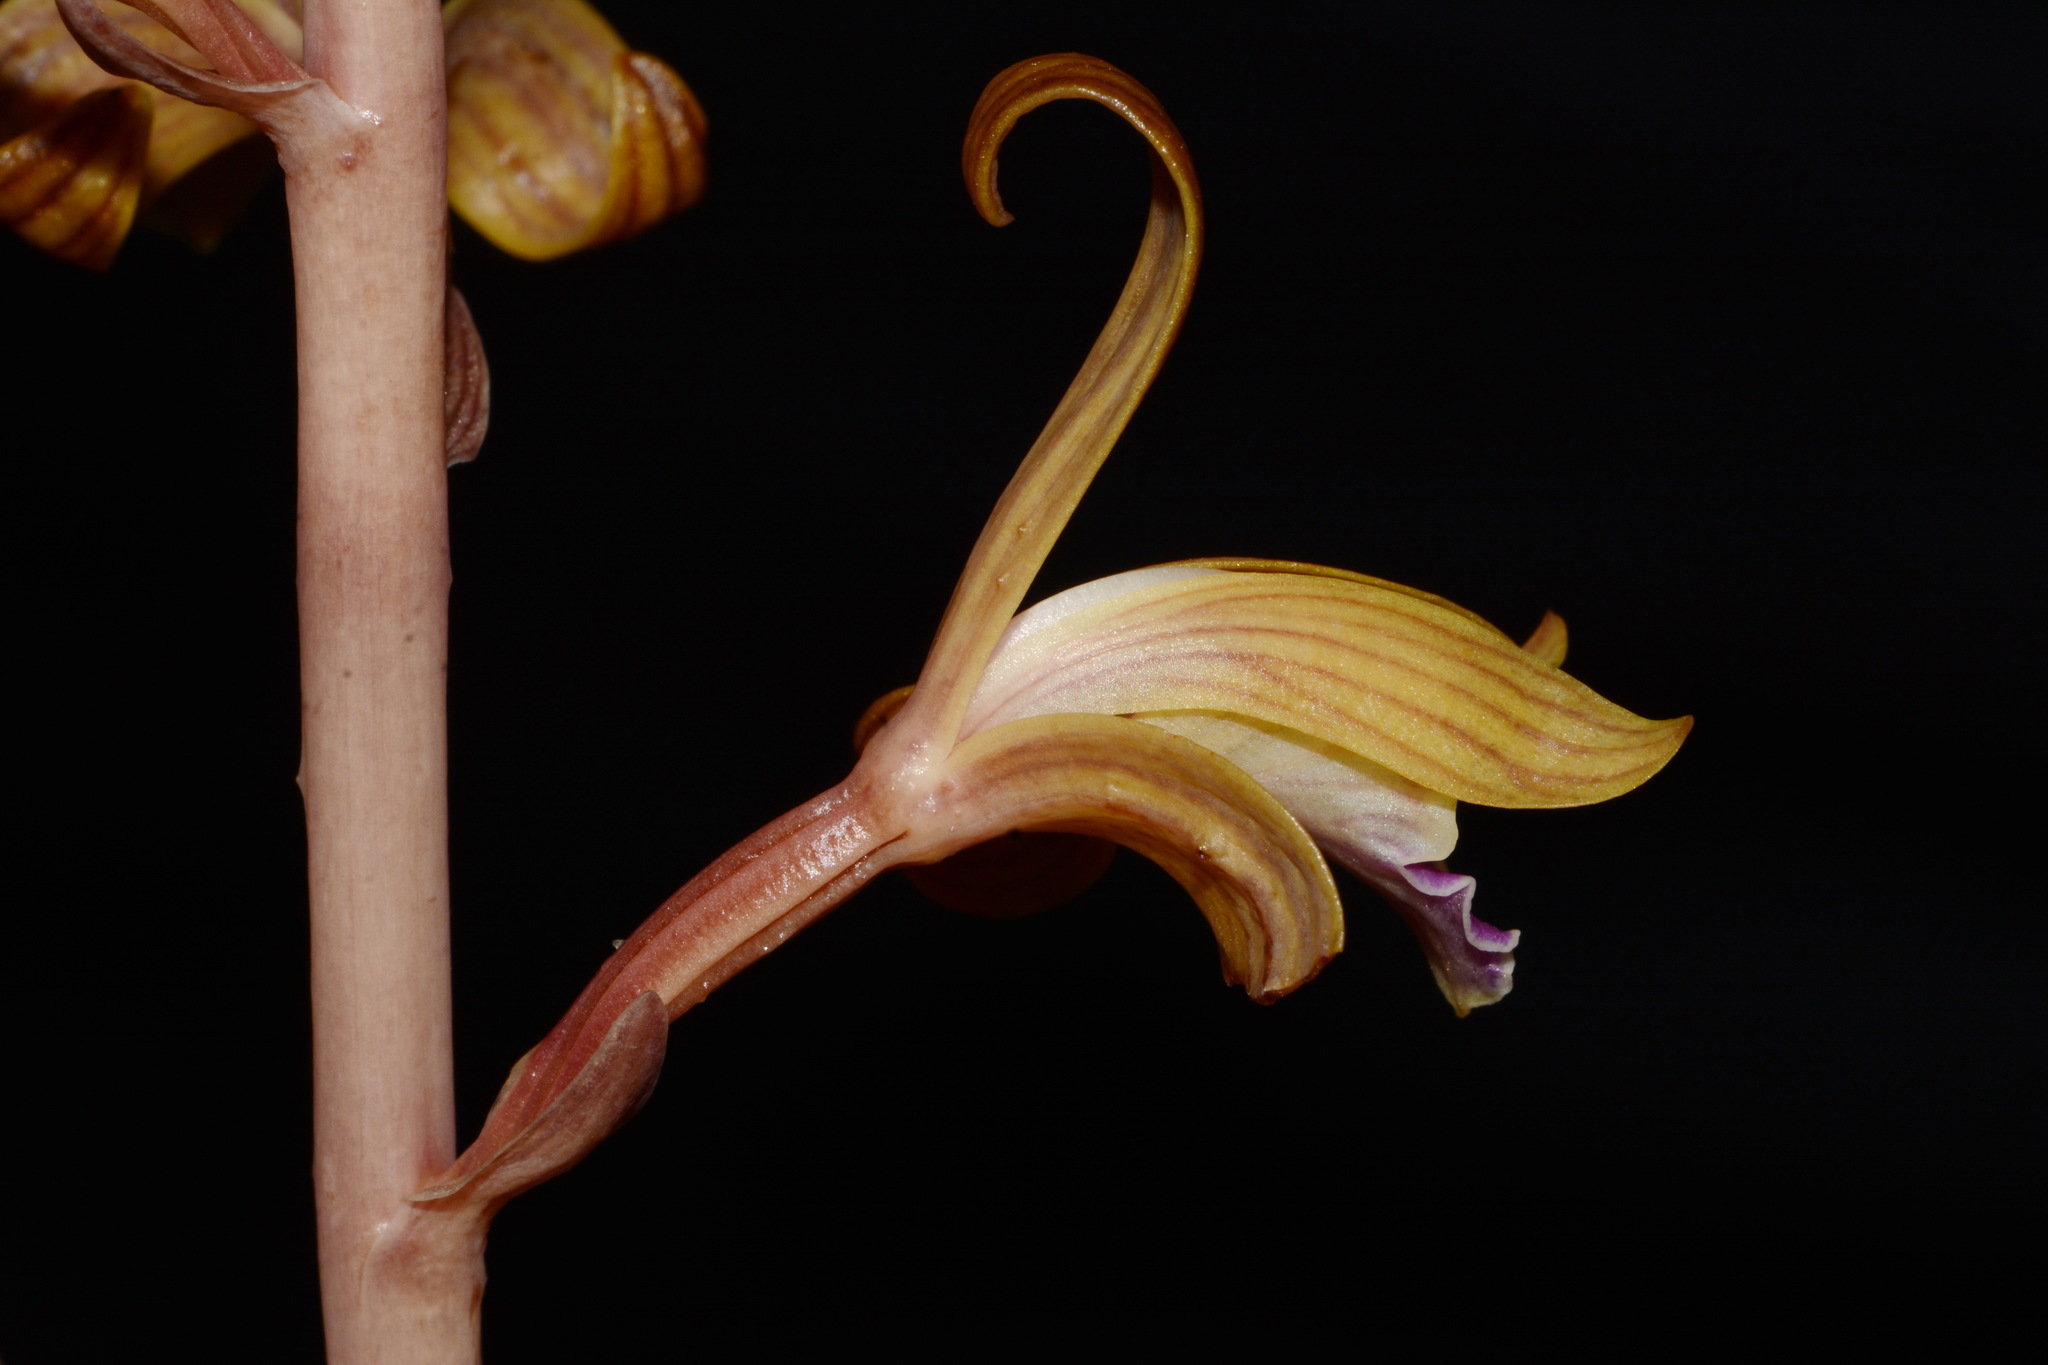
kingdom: Plantae
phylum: Tracheophyta
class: Liliopsida
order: Asparagales
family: Orchidaceae
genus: Bletia
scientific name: Bletia spicata
